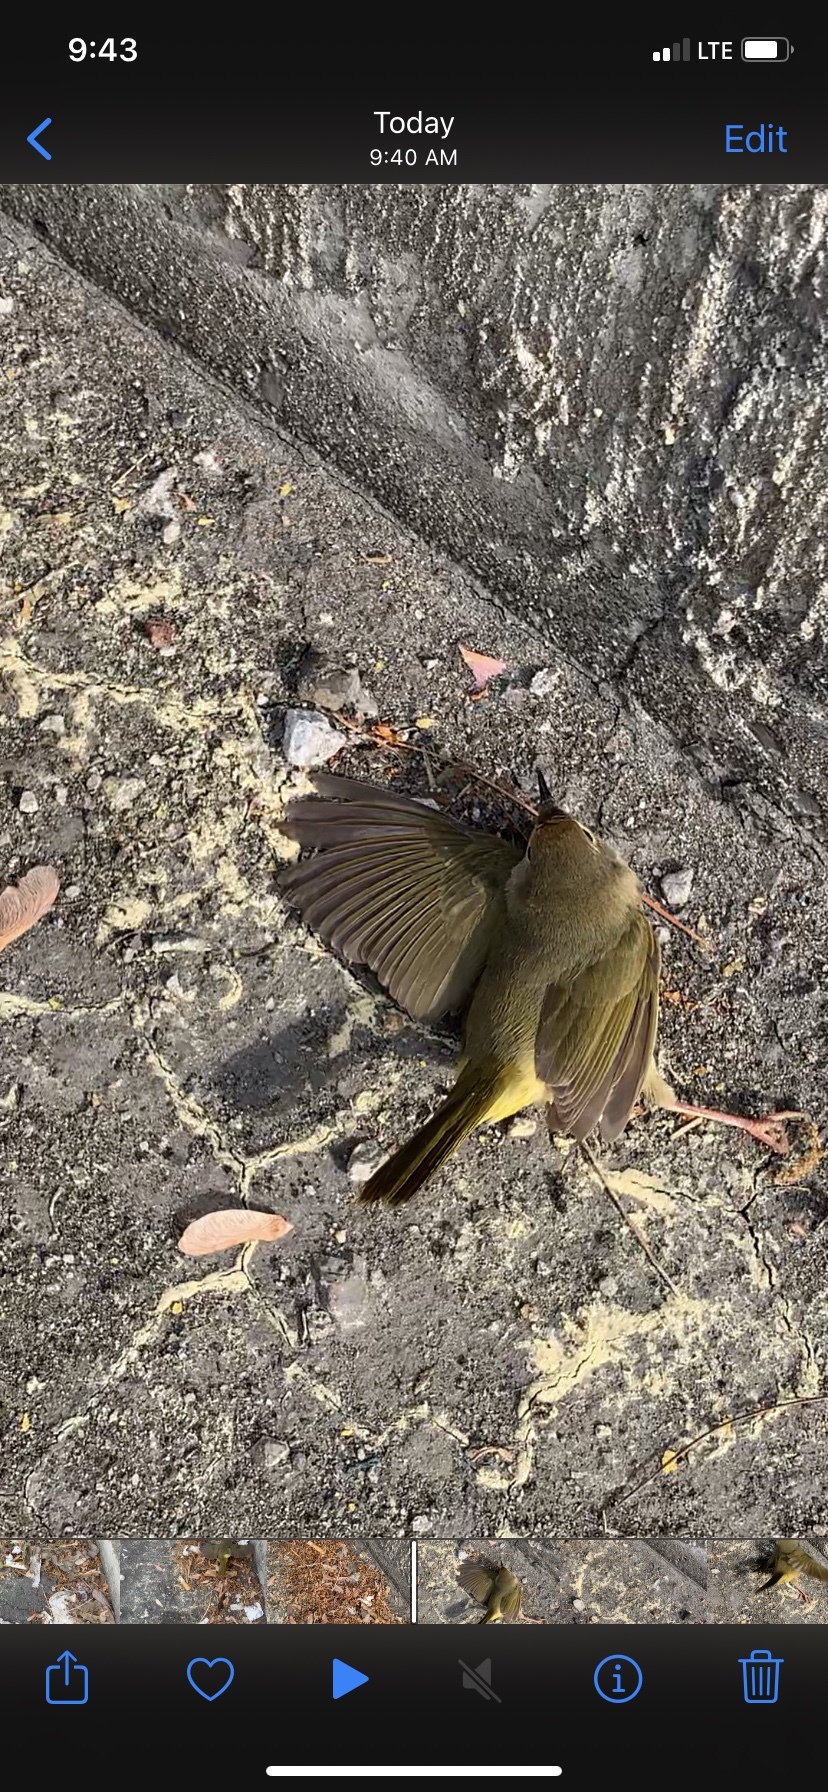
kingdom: Animalia
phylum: Chordata
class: Aves
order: Passeriformes
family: Parulidae
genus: Geothlypis
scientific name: Geothlypis trichas
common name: Common yellowthroat
